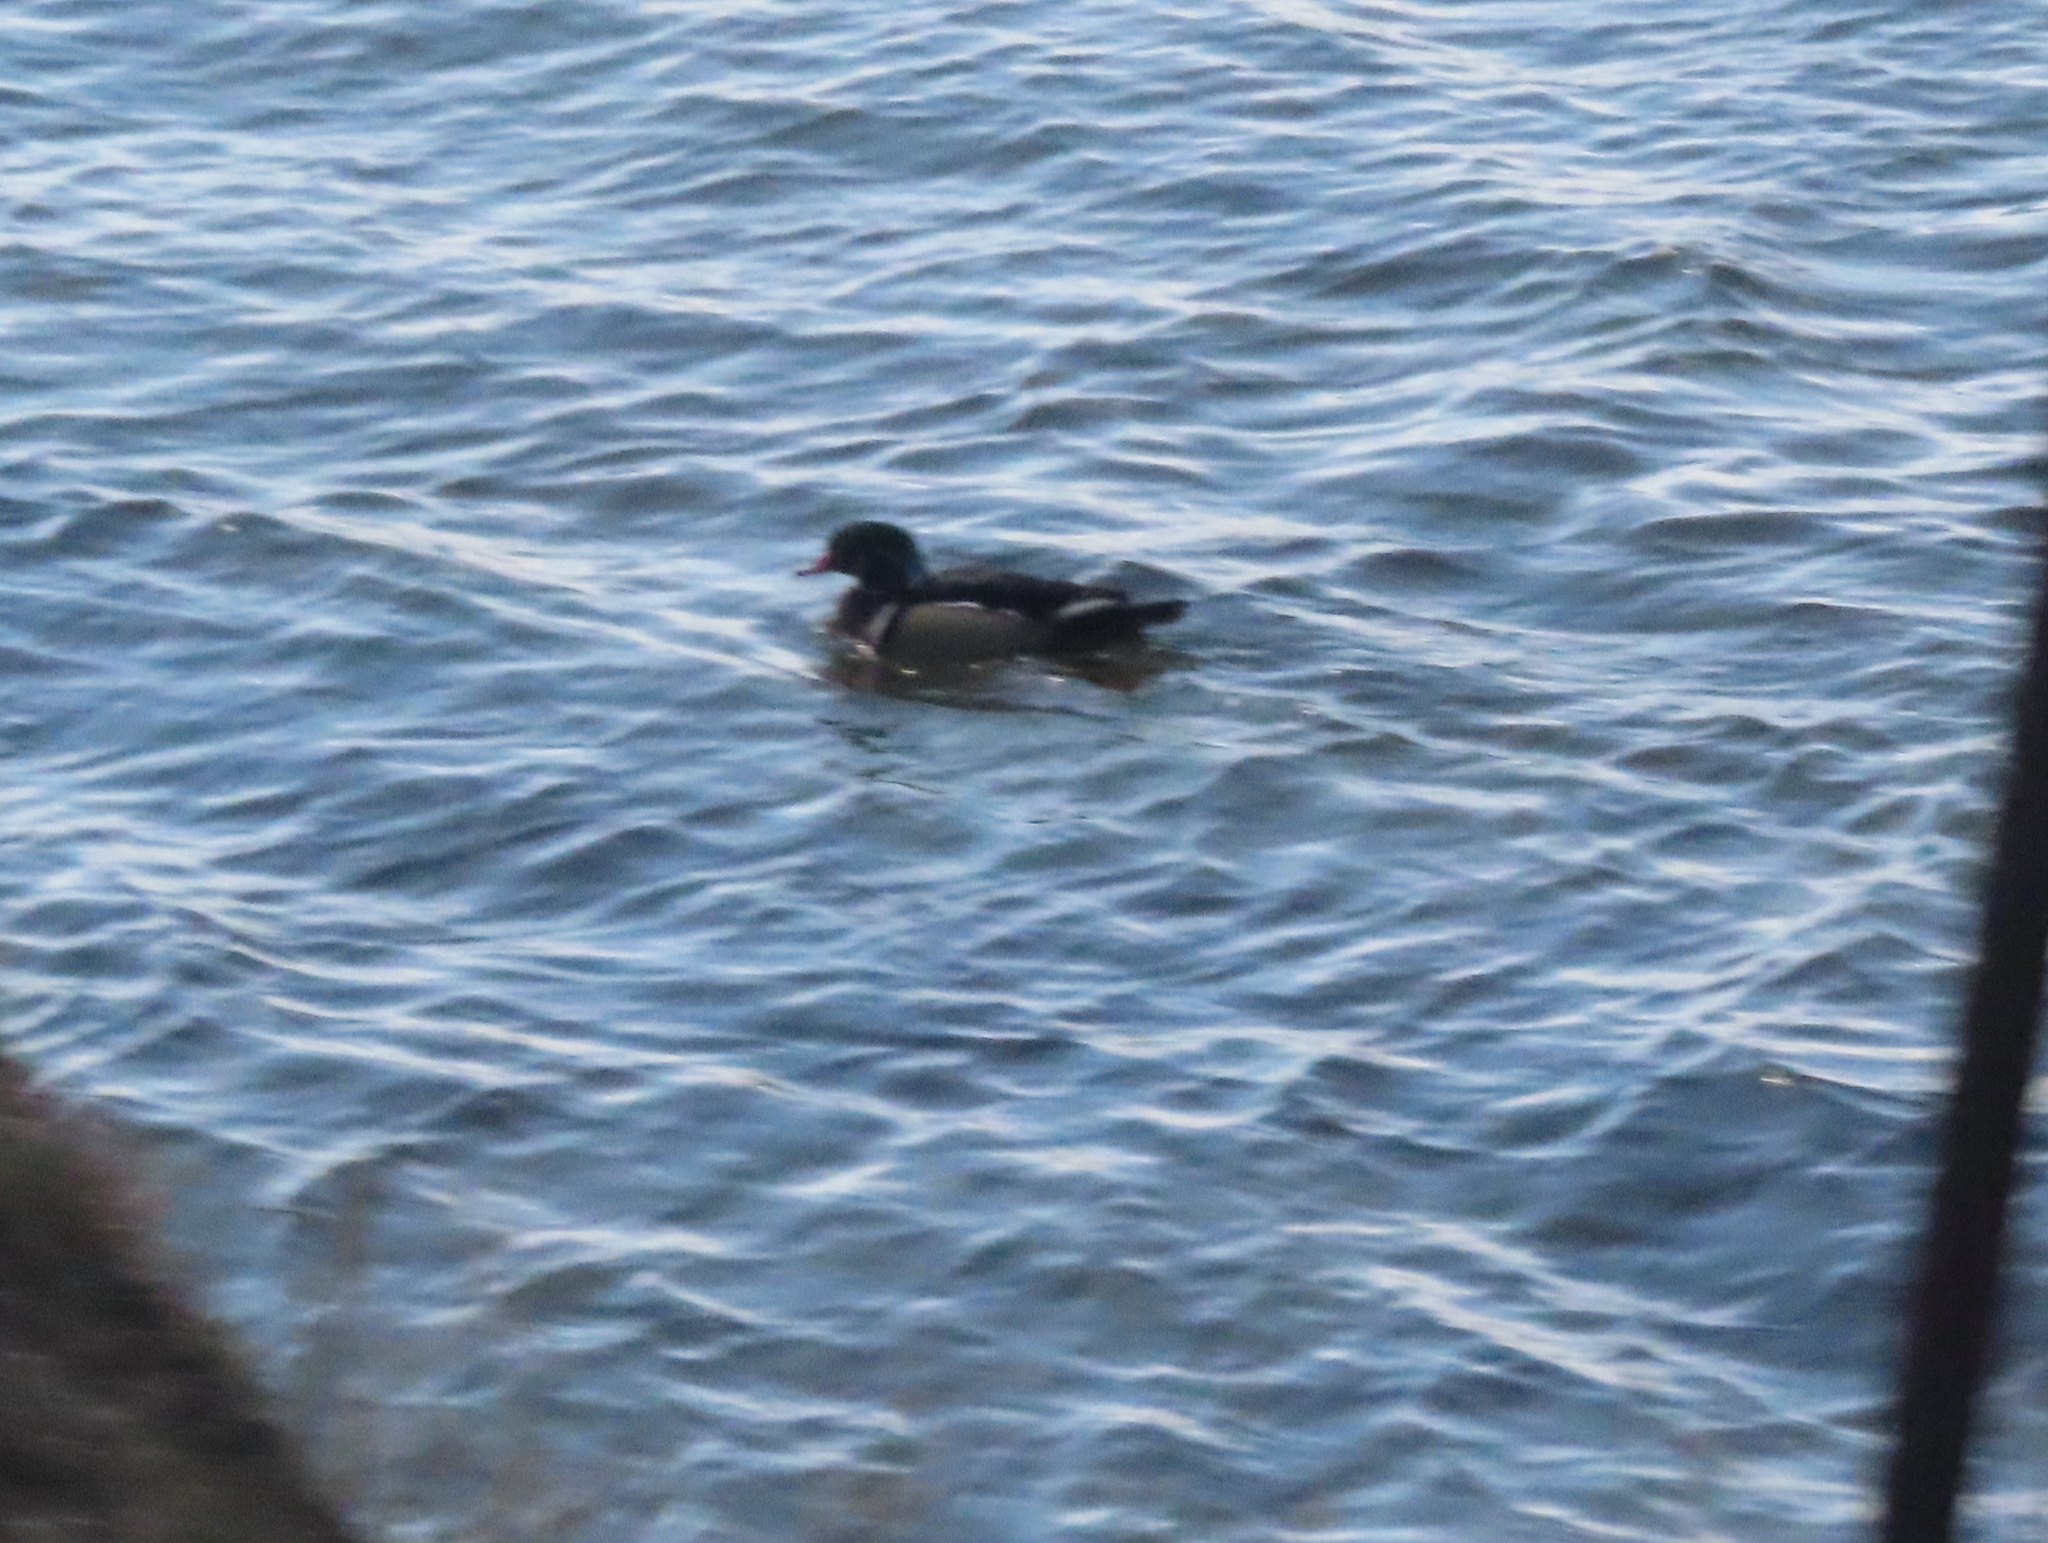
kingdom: Animalia
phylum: Chordata
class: Aves
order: Anseriformes
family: Anatidae
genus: Aix
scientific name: Aix sponsa
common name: Wood duck
